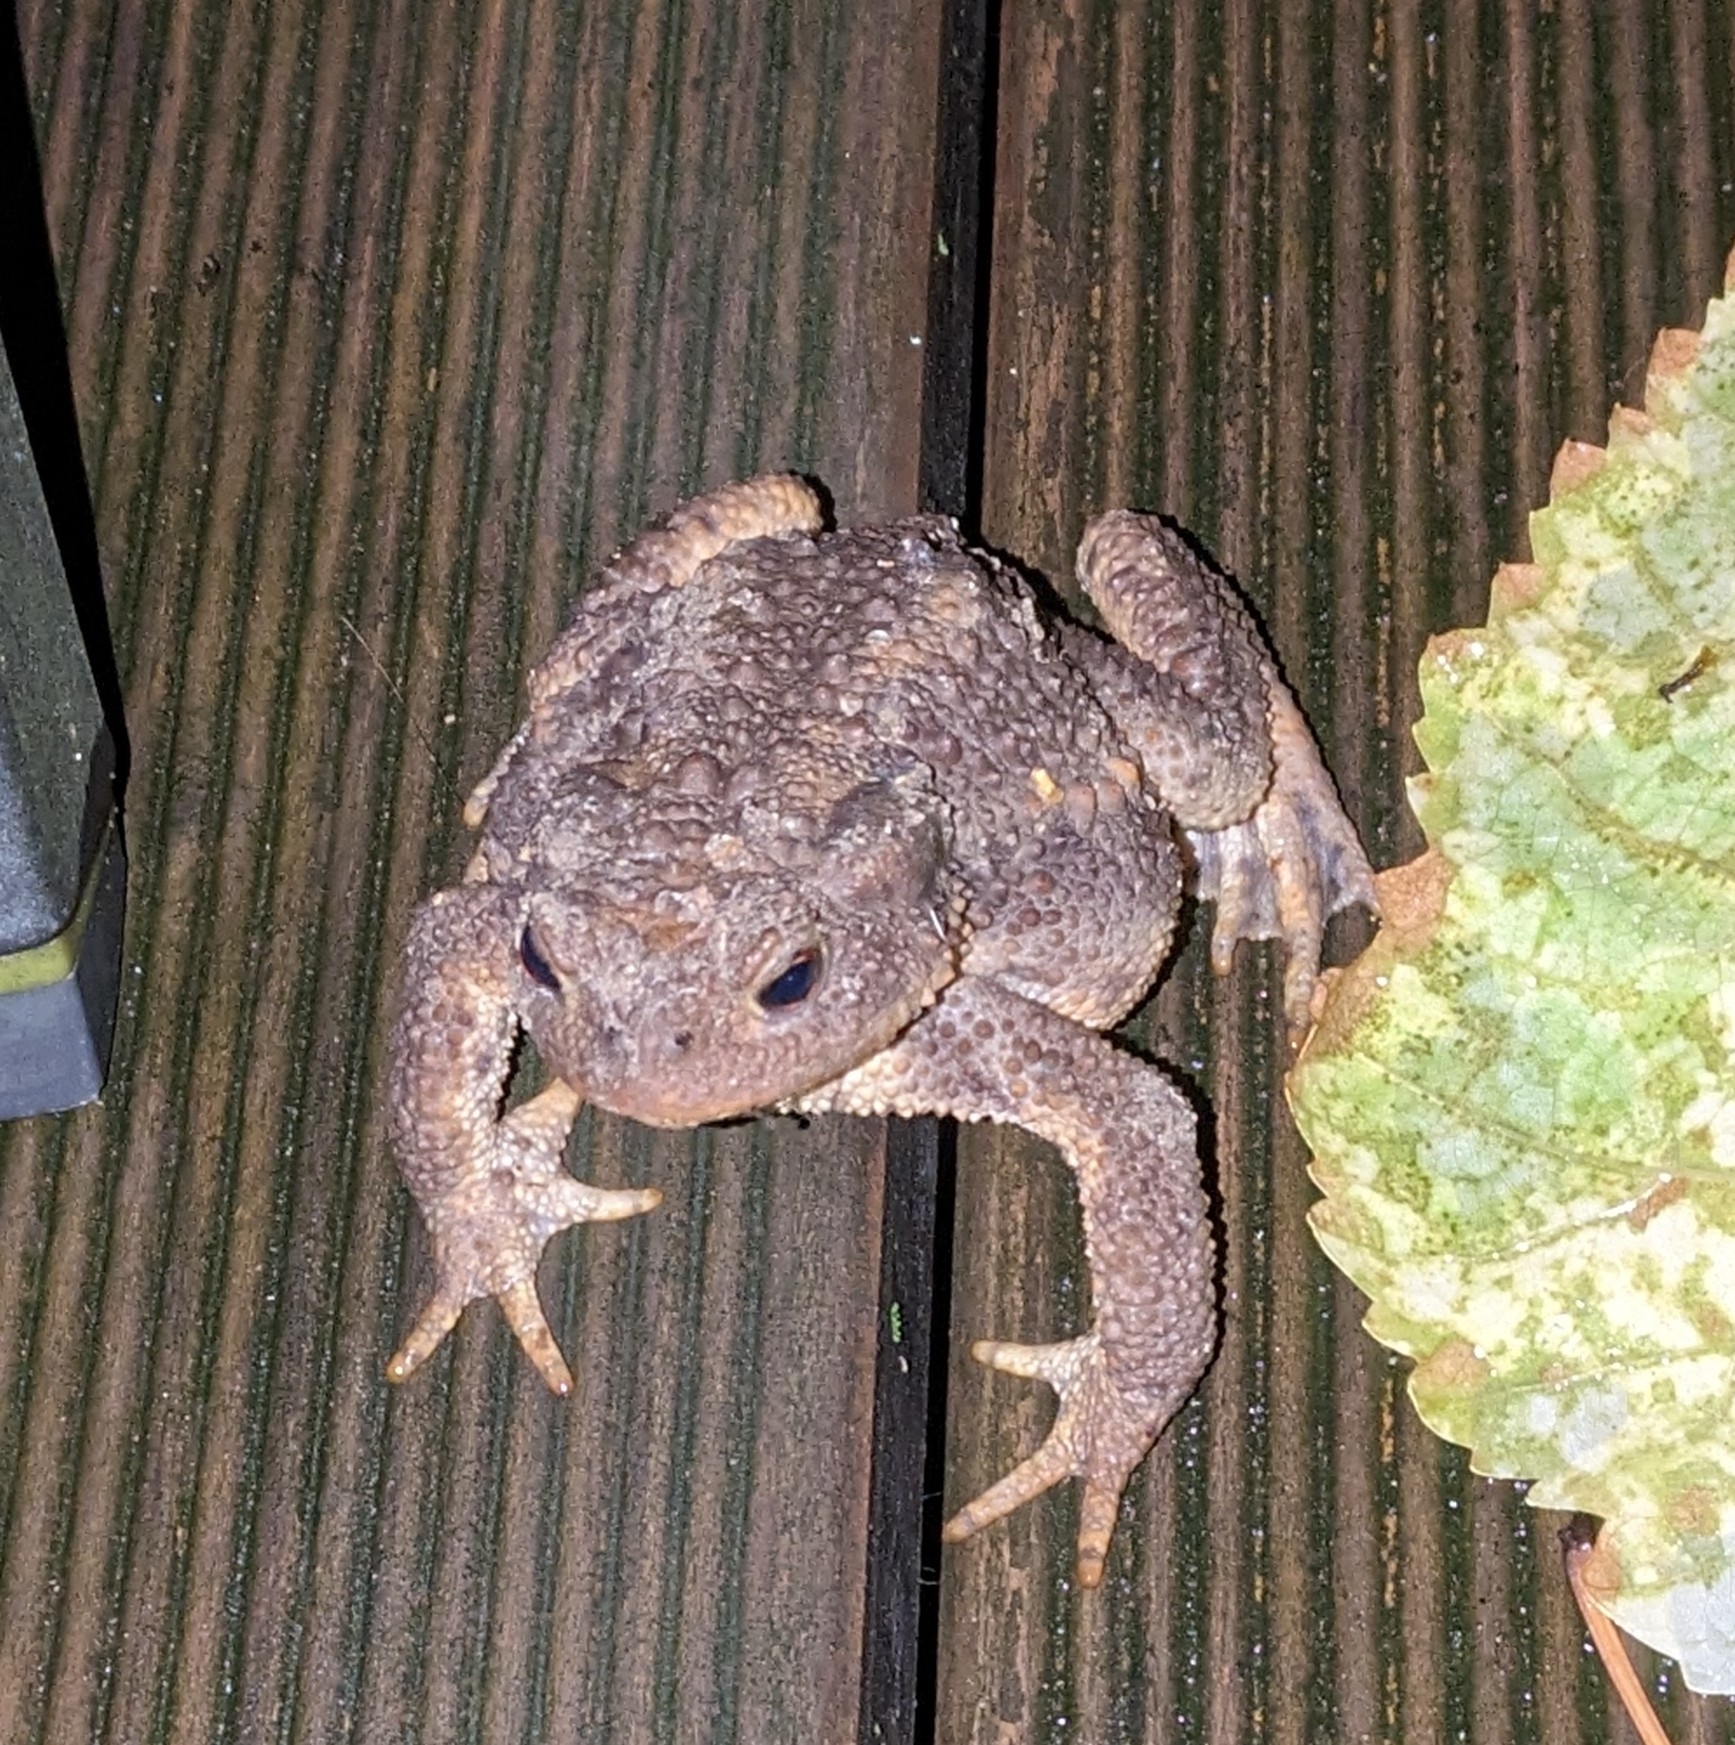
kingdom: Animalia
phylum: Chordata
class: Amphibia
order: Anura
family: Bufonidae
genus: Bufo
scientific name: Bufo bufo
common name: Common toad
